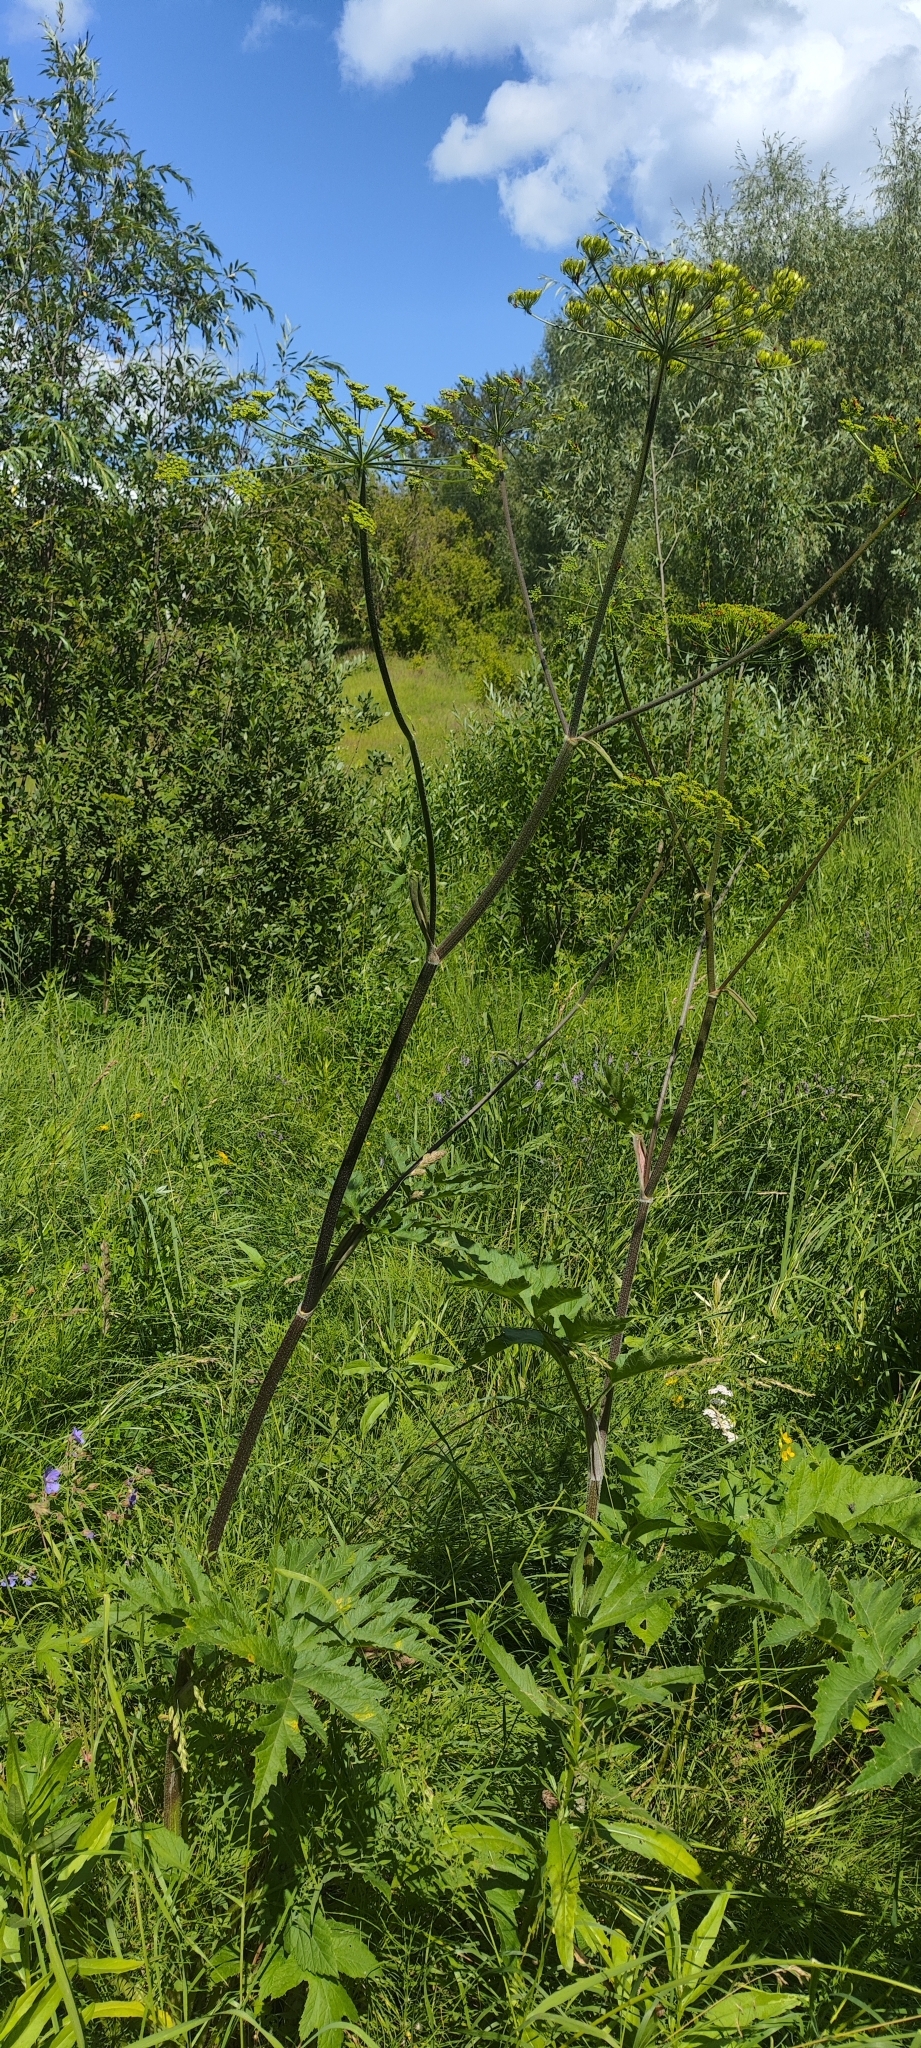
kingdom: Plantae
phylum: Tracheophyta
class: Magnoliopsida
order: Apiales
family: Apiaceae
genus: Heracleum
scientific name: Heracleum sphondylium
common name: Hogweed
